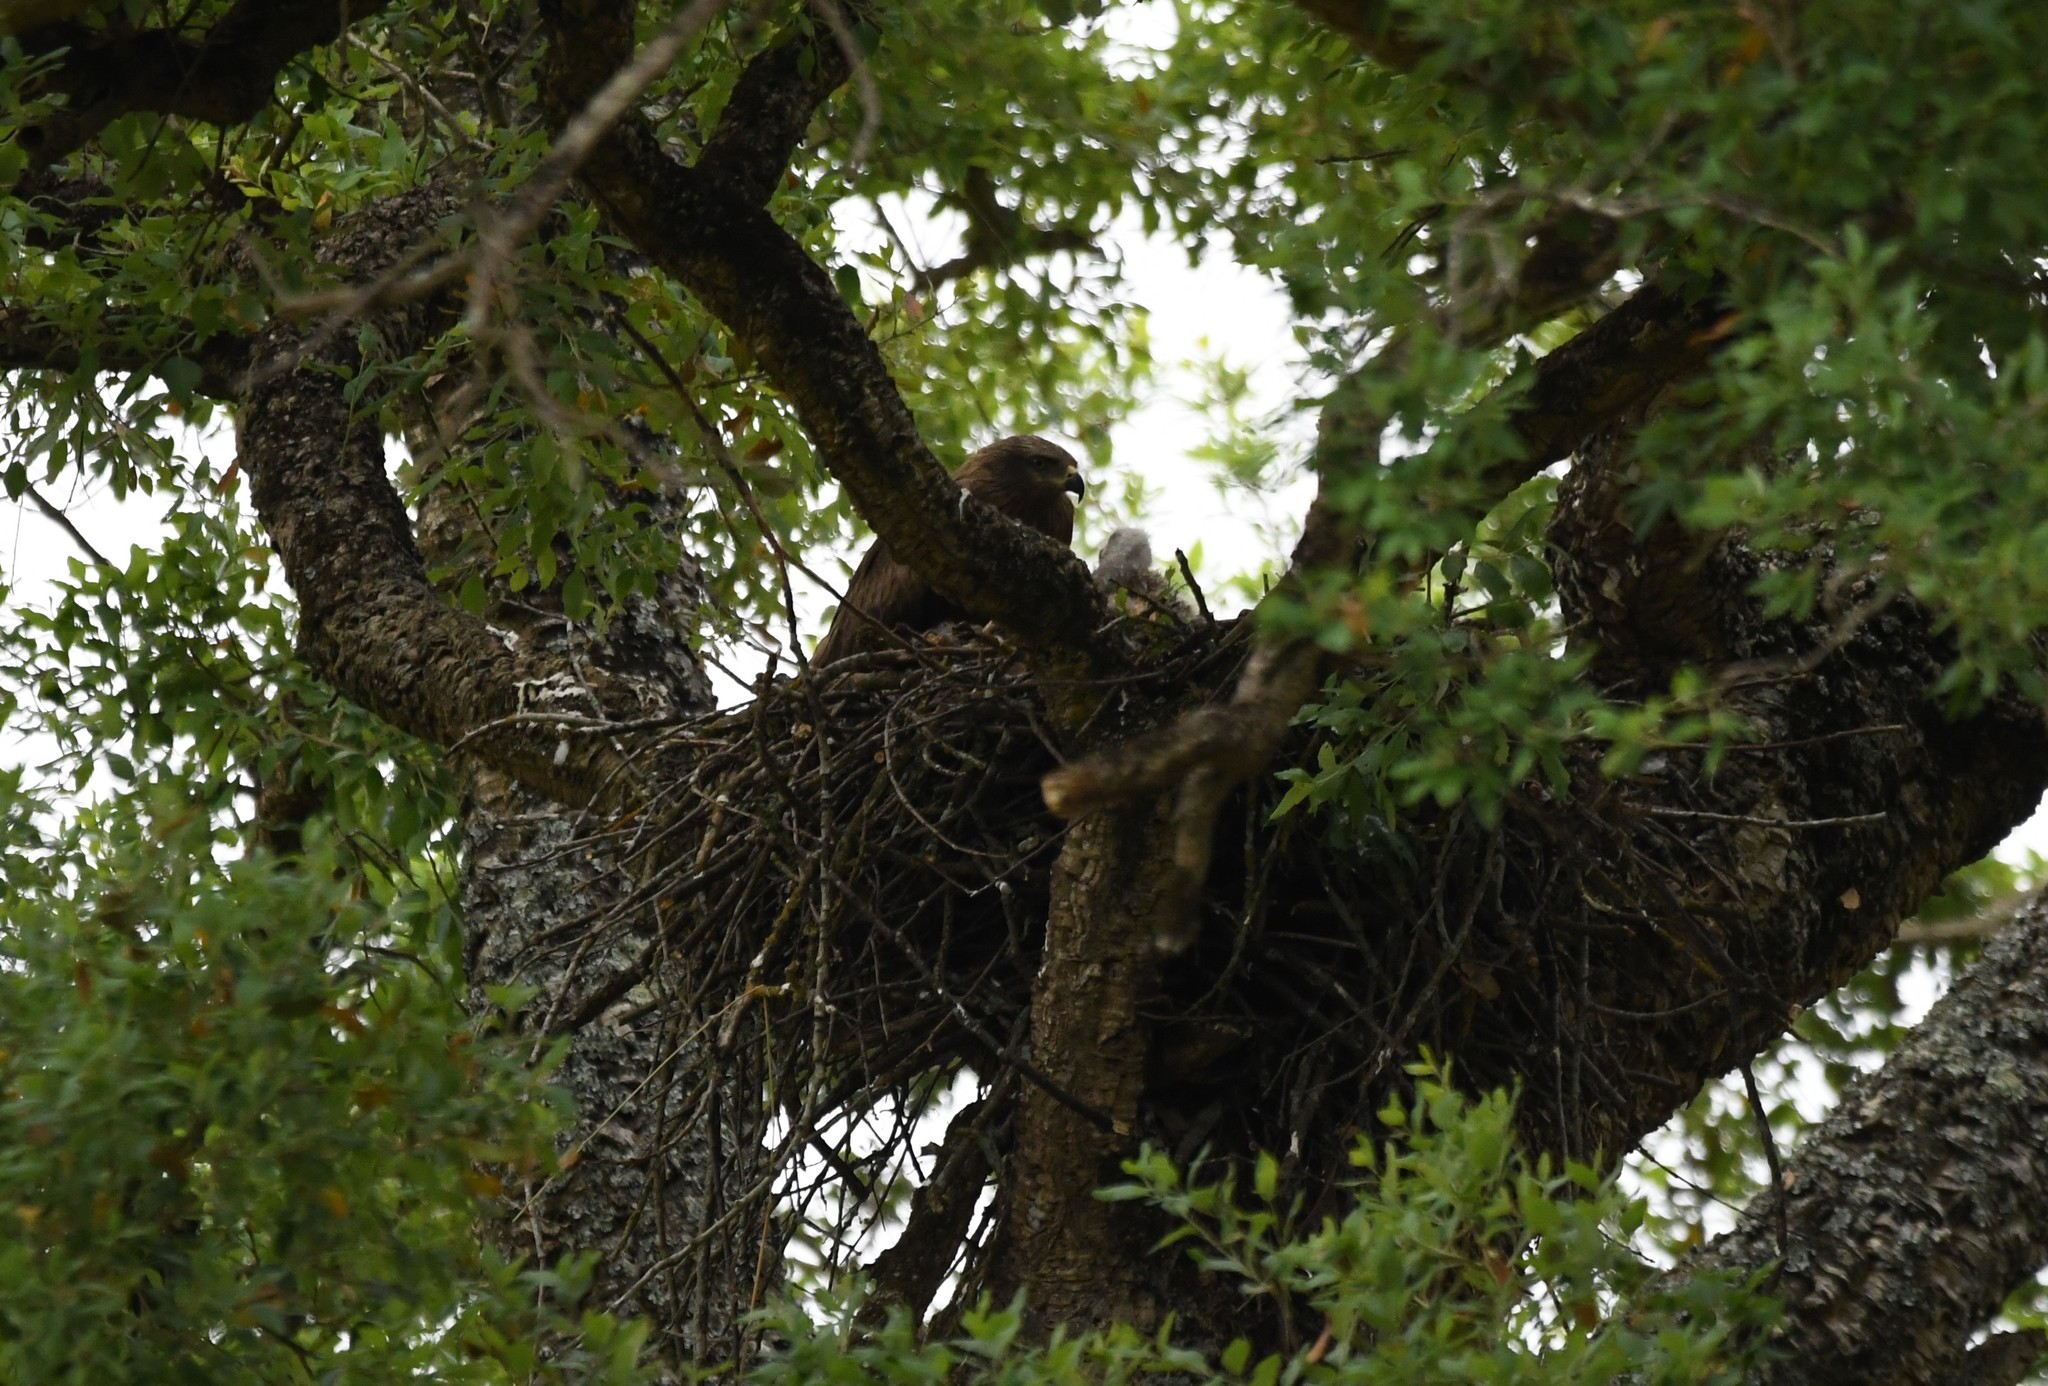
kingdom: Animalia
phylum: Chordata
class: Aves
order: Accipitriformes
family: Accipitridae
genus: Milvus
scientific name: Milvus migrans
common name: Black kite
